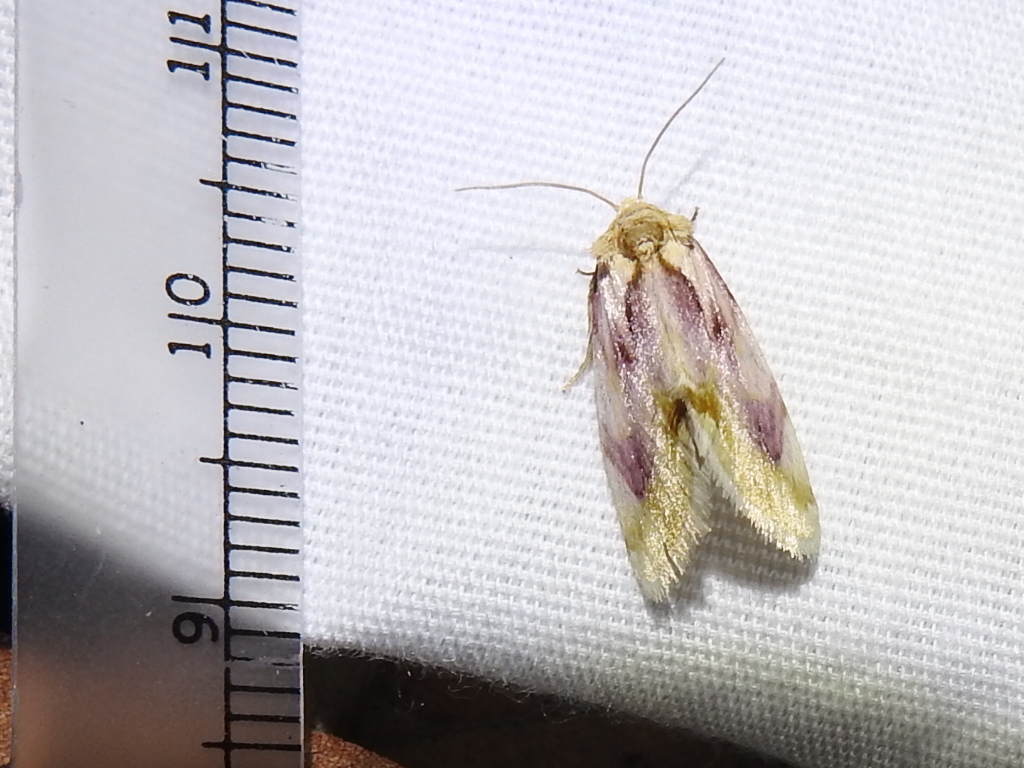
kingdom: Animalia
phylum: Arthropoda
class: Insecta
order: Lepidoptera
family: Noctuidae
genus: Chamaeclea
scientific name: Chamaeclea pernana
